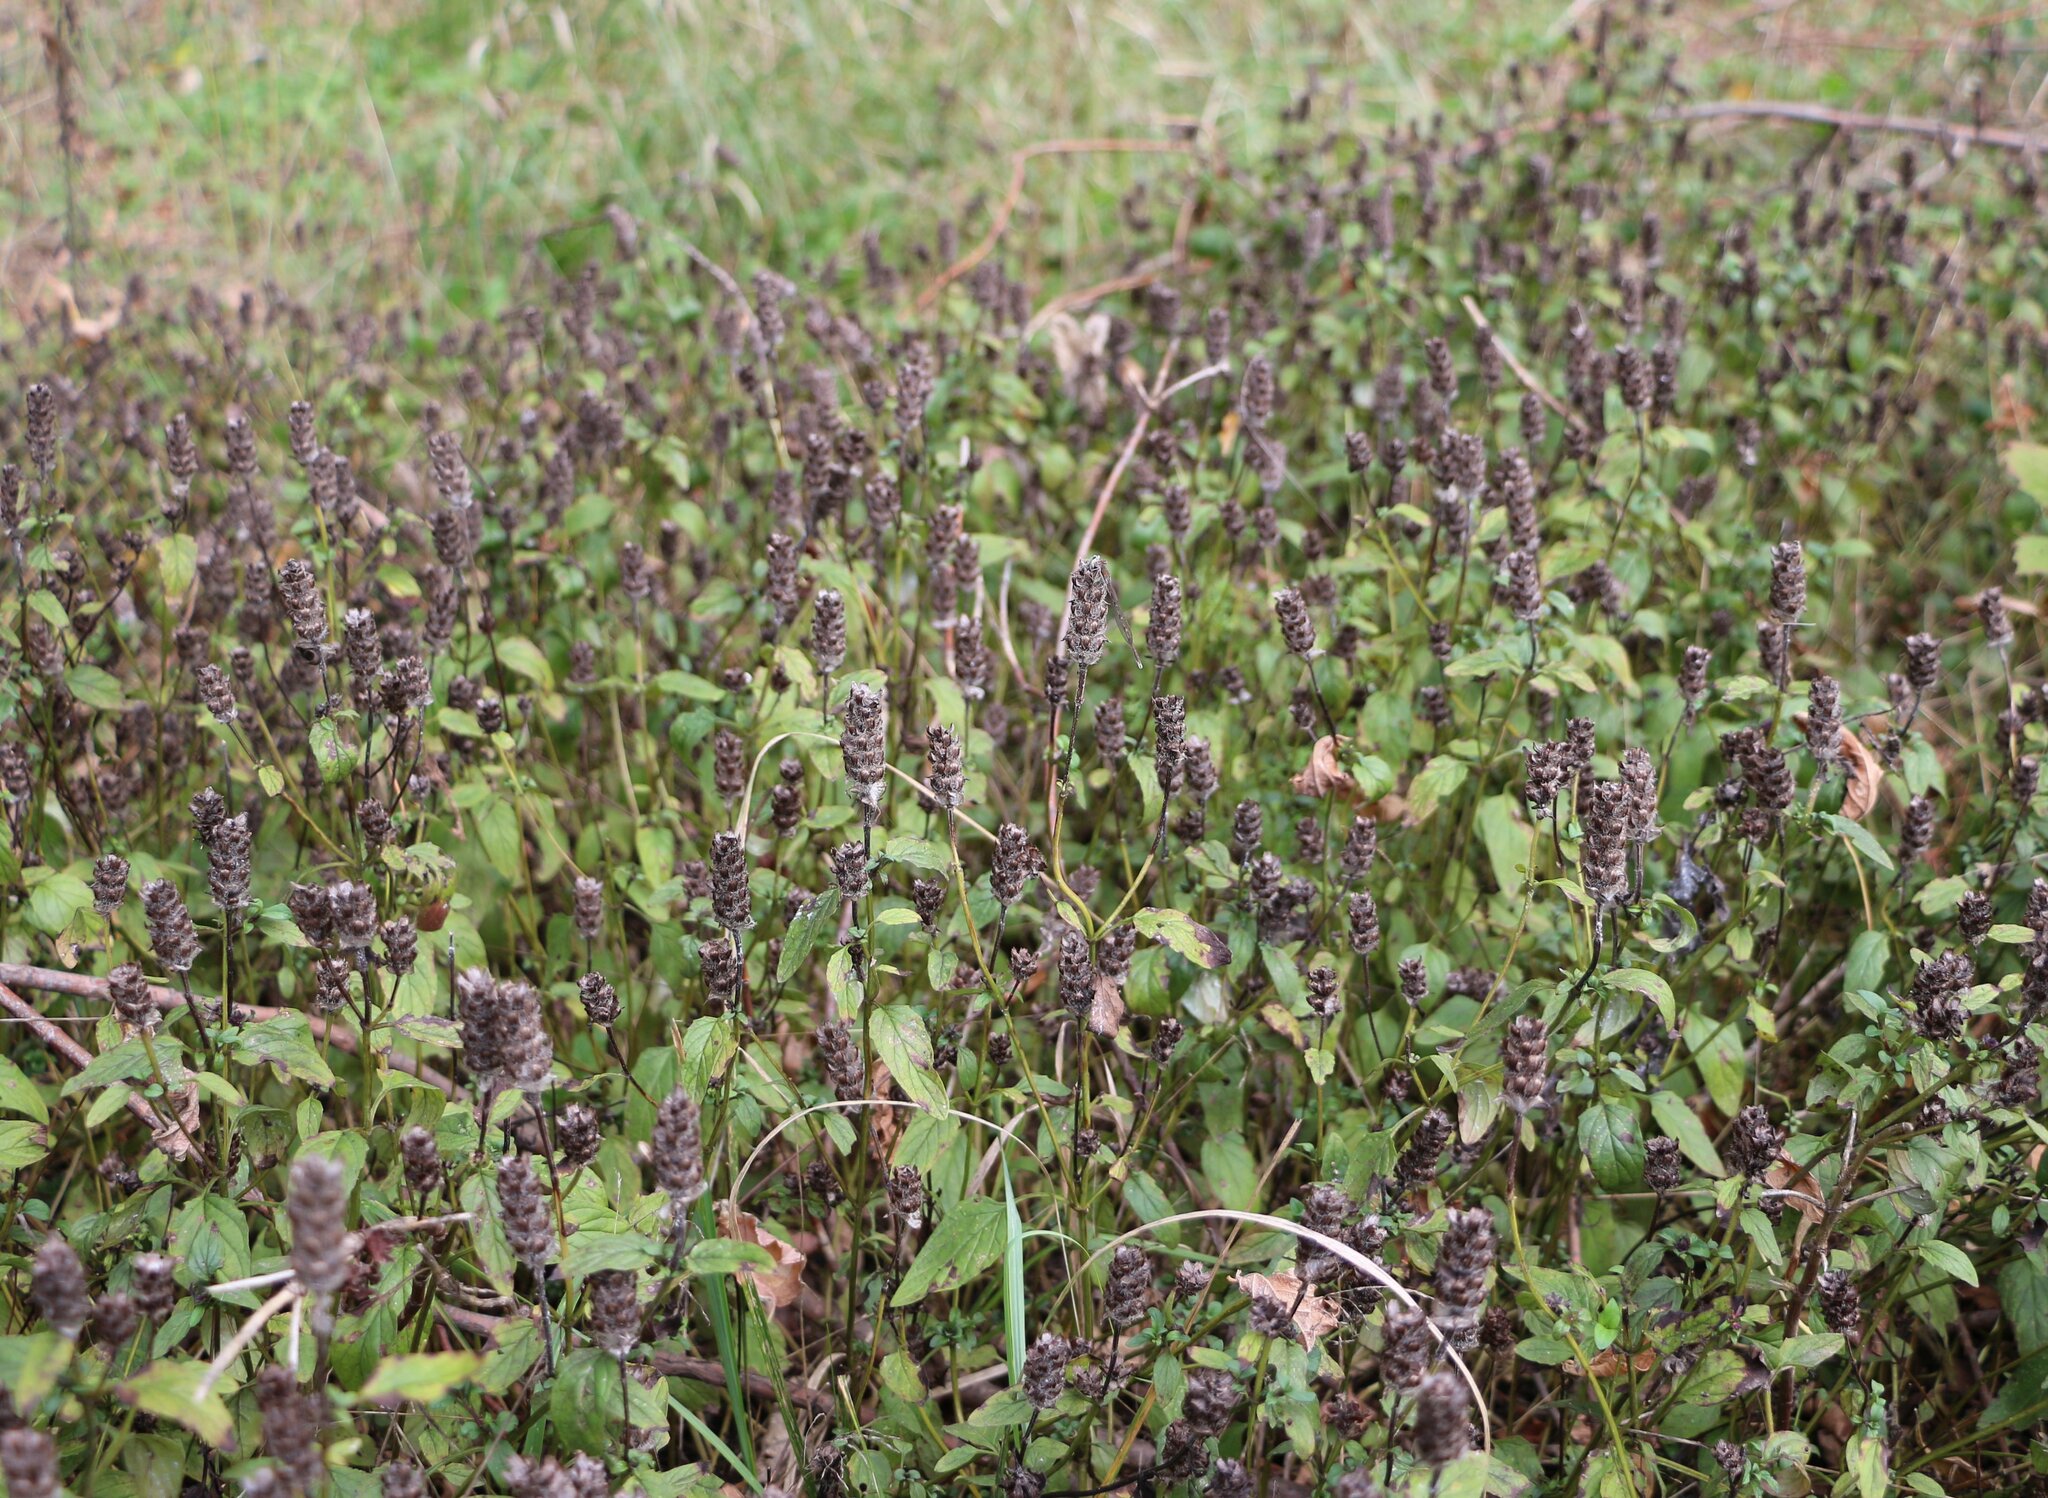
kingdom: Plantae
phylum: Tracheophyta
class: Magnoliopsida
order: Lamiales
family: Lamiaceae
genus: Prunella
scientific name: Prunella vulgaris
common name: Heal-all
